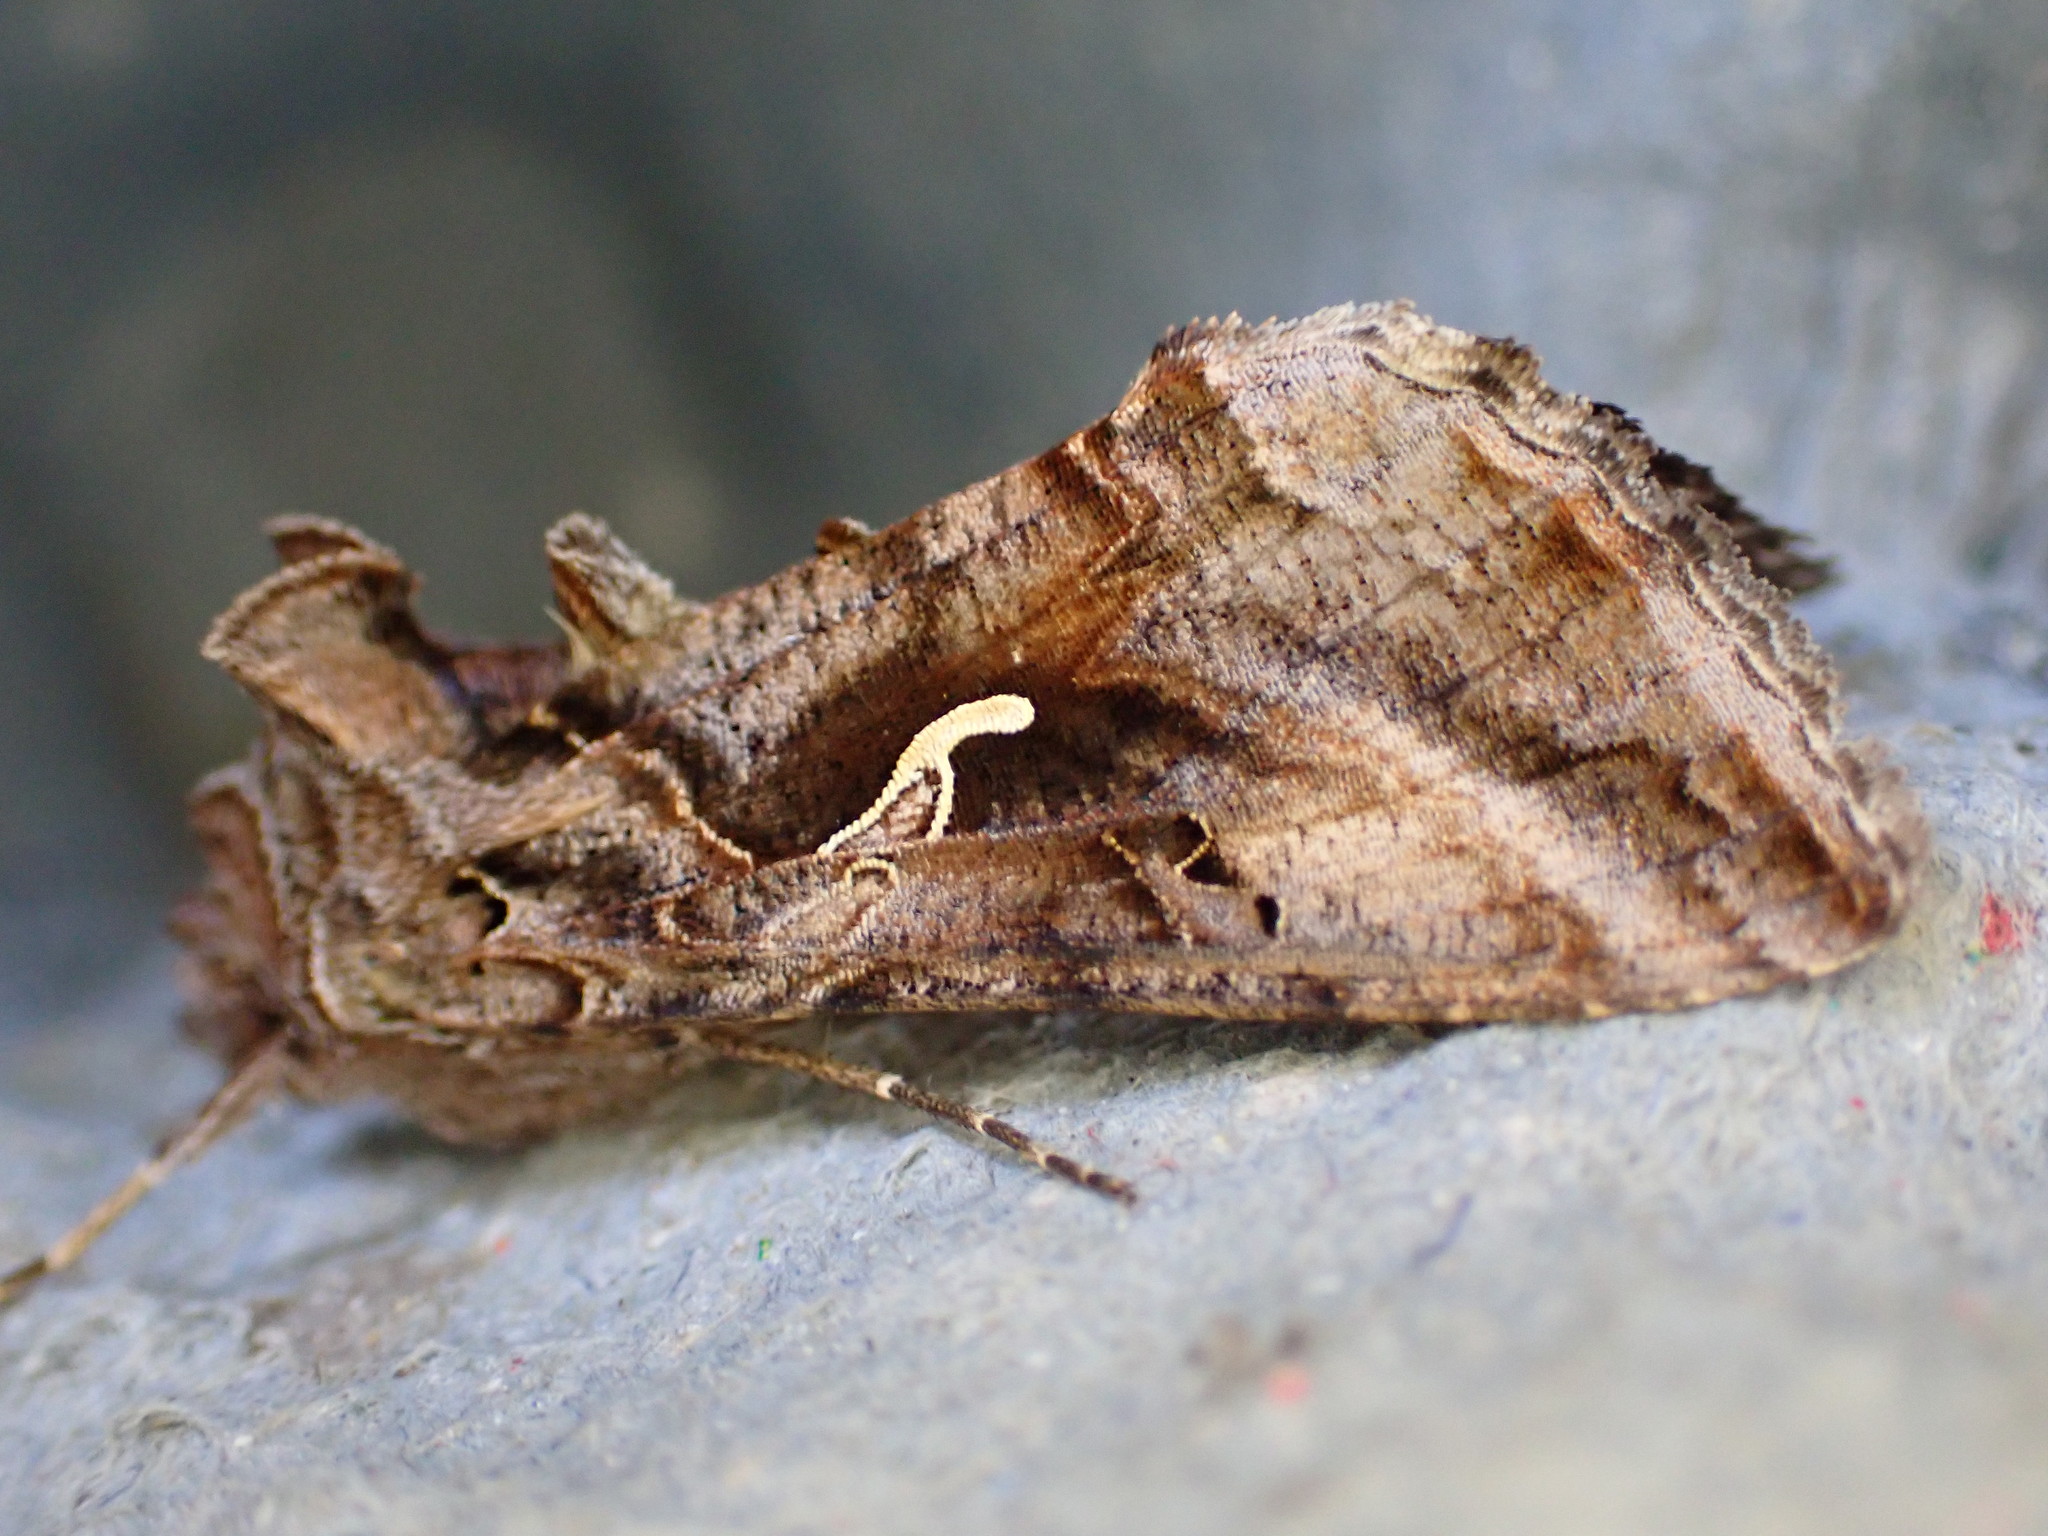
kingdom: Animalia
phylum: Arthropoda
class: Insecta
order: Lepidoptera
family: Noctuidae
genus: Autographa
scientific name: Autographa gamma
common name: Silver y
